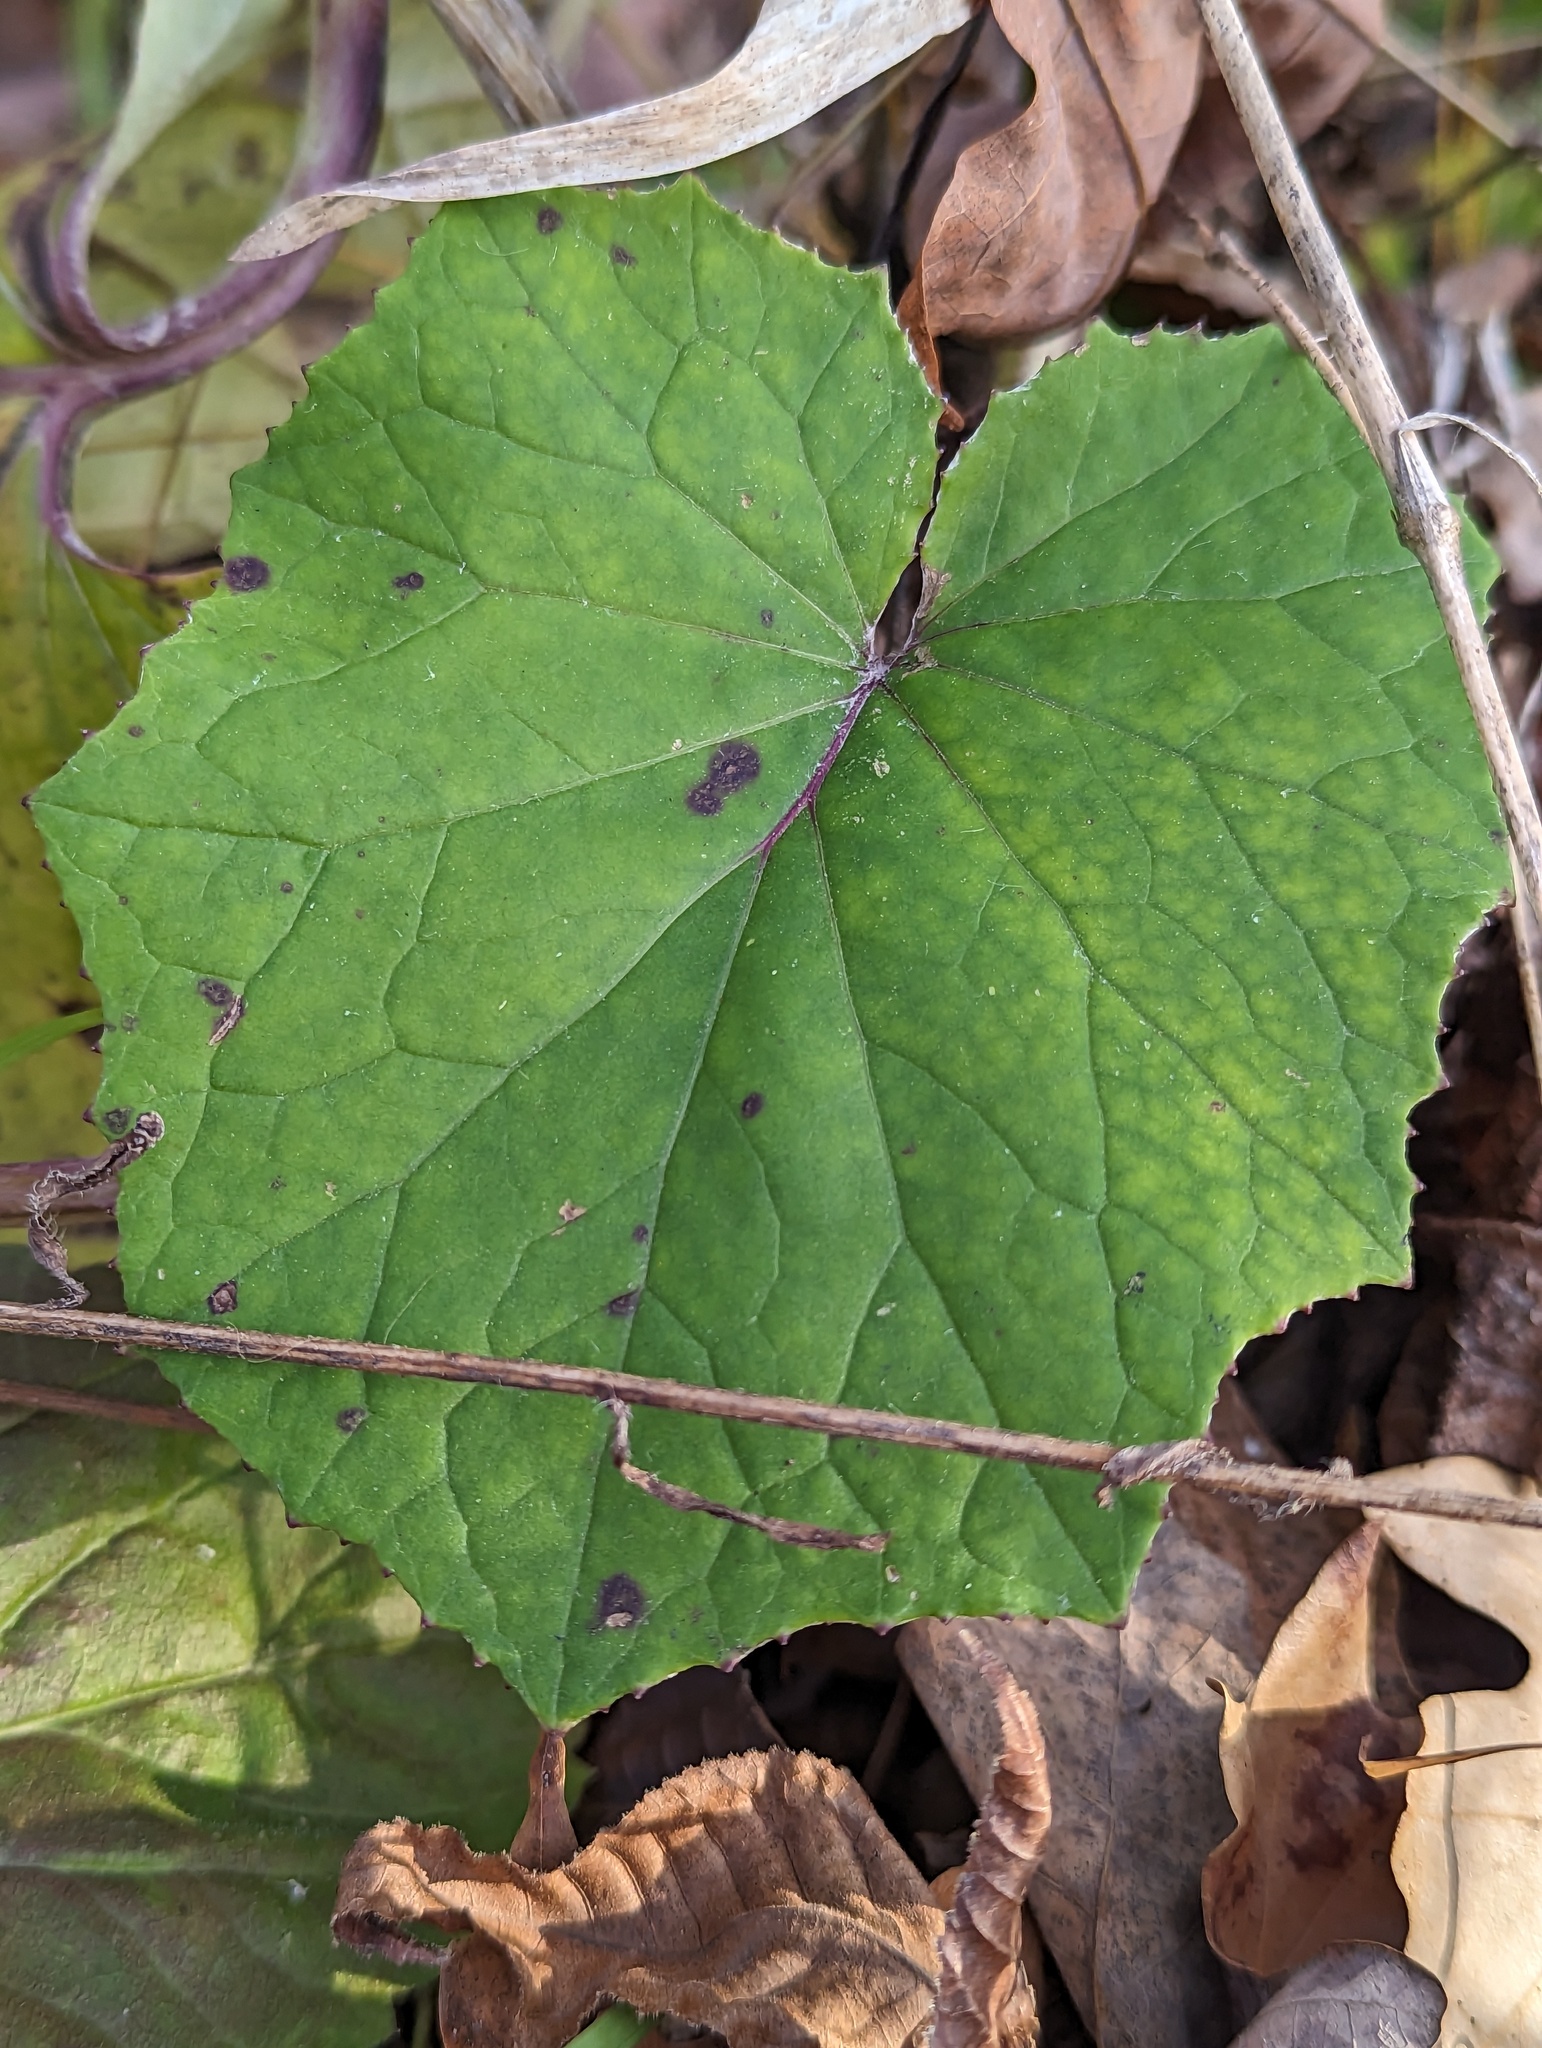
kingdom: Plantae
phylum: Tracheophyta
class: Magnoliopsida
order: Asterales
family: Asteraceae
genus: Tussilago
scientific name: Tussilago farfara
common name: Coltsfoot
